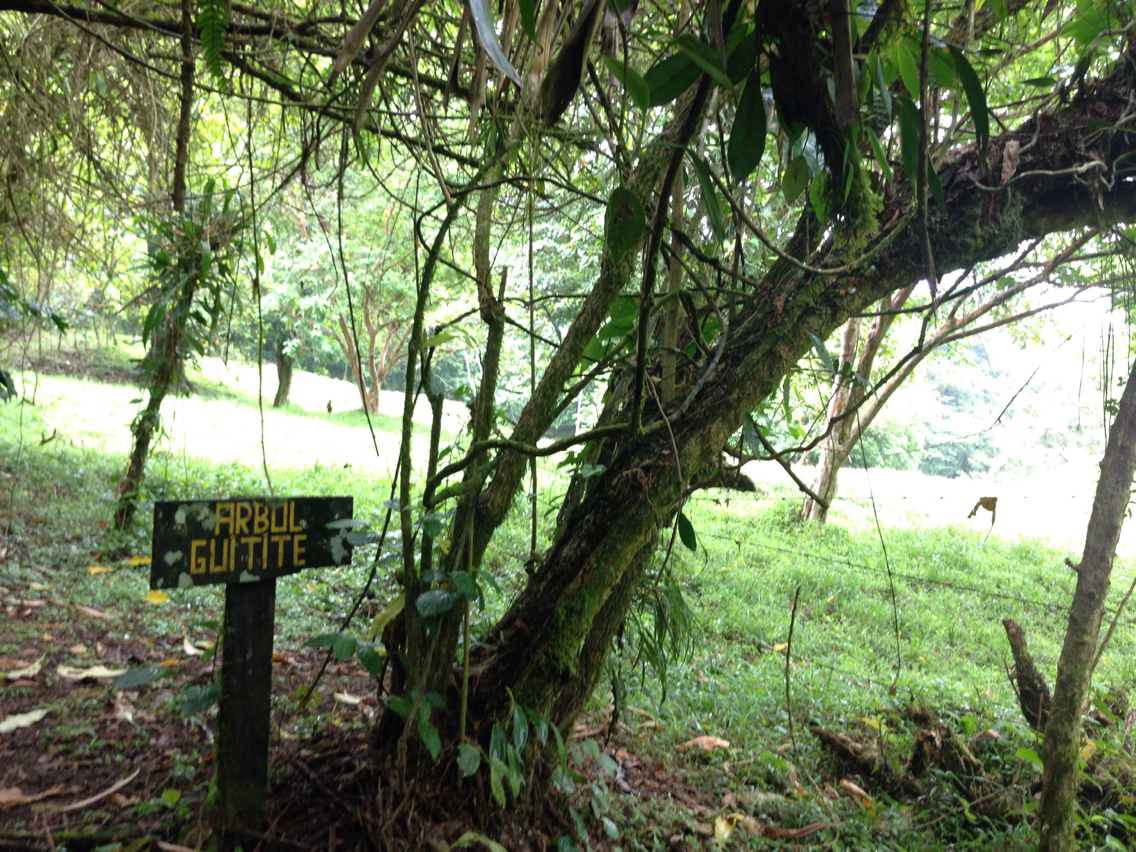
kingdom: Plantae
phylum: Tracheophyta
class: Magnoliopsida
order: Solanales
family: Solanaceae
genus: Iochroma
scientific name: Iochroma arborescens
